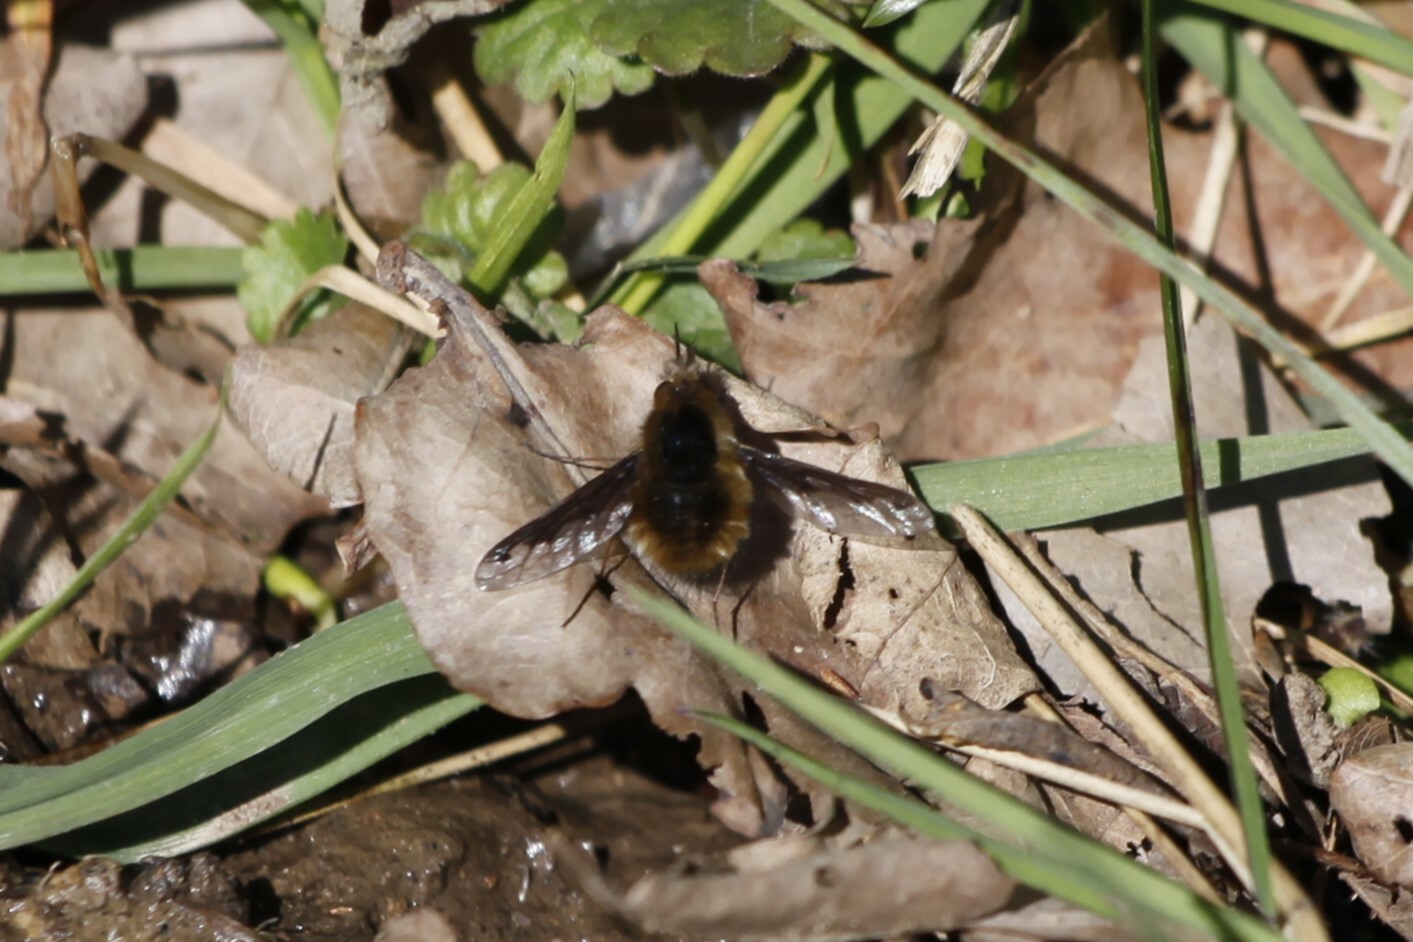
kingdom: Animalia
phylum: Arthropoda
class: Insecta
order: Diptera
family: Bombyliidae
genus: Bombylius
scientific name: Bombylius major
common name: Bee fly
